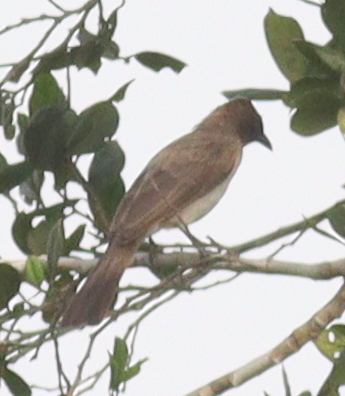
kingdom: Animalia
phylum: Chordata
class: Aves
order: Passeriformes
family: Pycnonotidae
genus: Pycnonotus
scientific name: Pycnonotus barbatus
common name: Common bulbul
